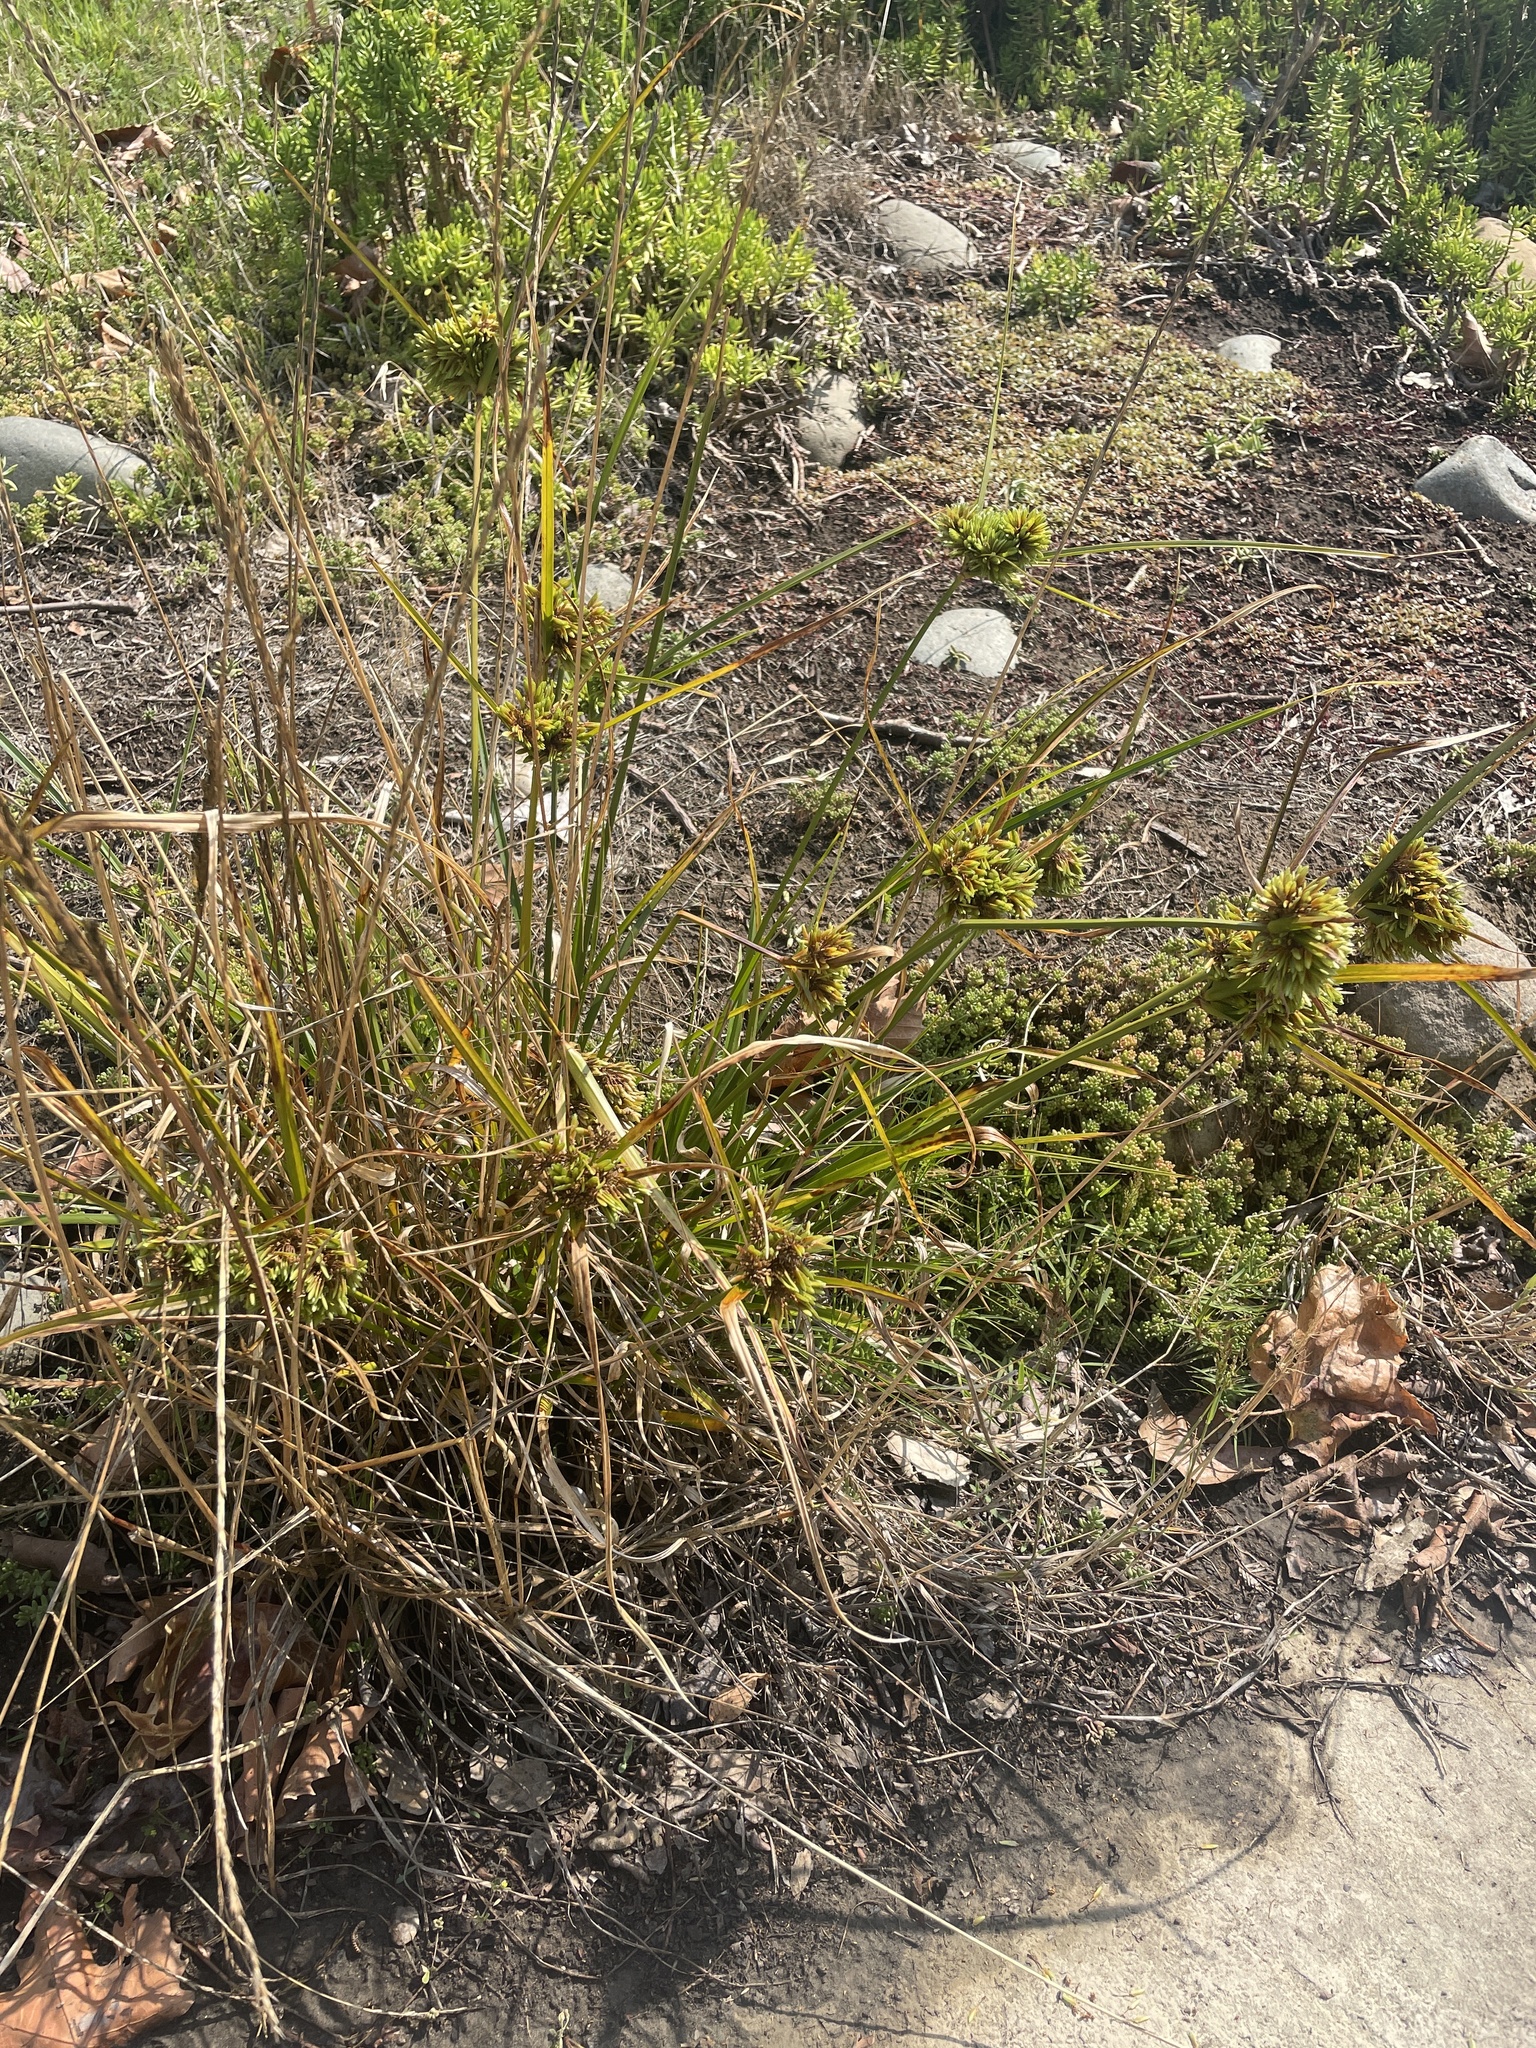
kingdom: Plantae
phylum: Tracheophyta
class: Liliopsida
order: Poales
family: Cyperaceae
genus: Cyperus
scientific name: Cyperus eragrostis
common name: Tall flatsedge
